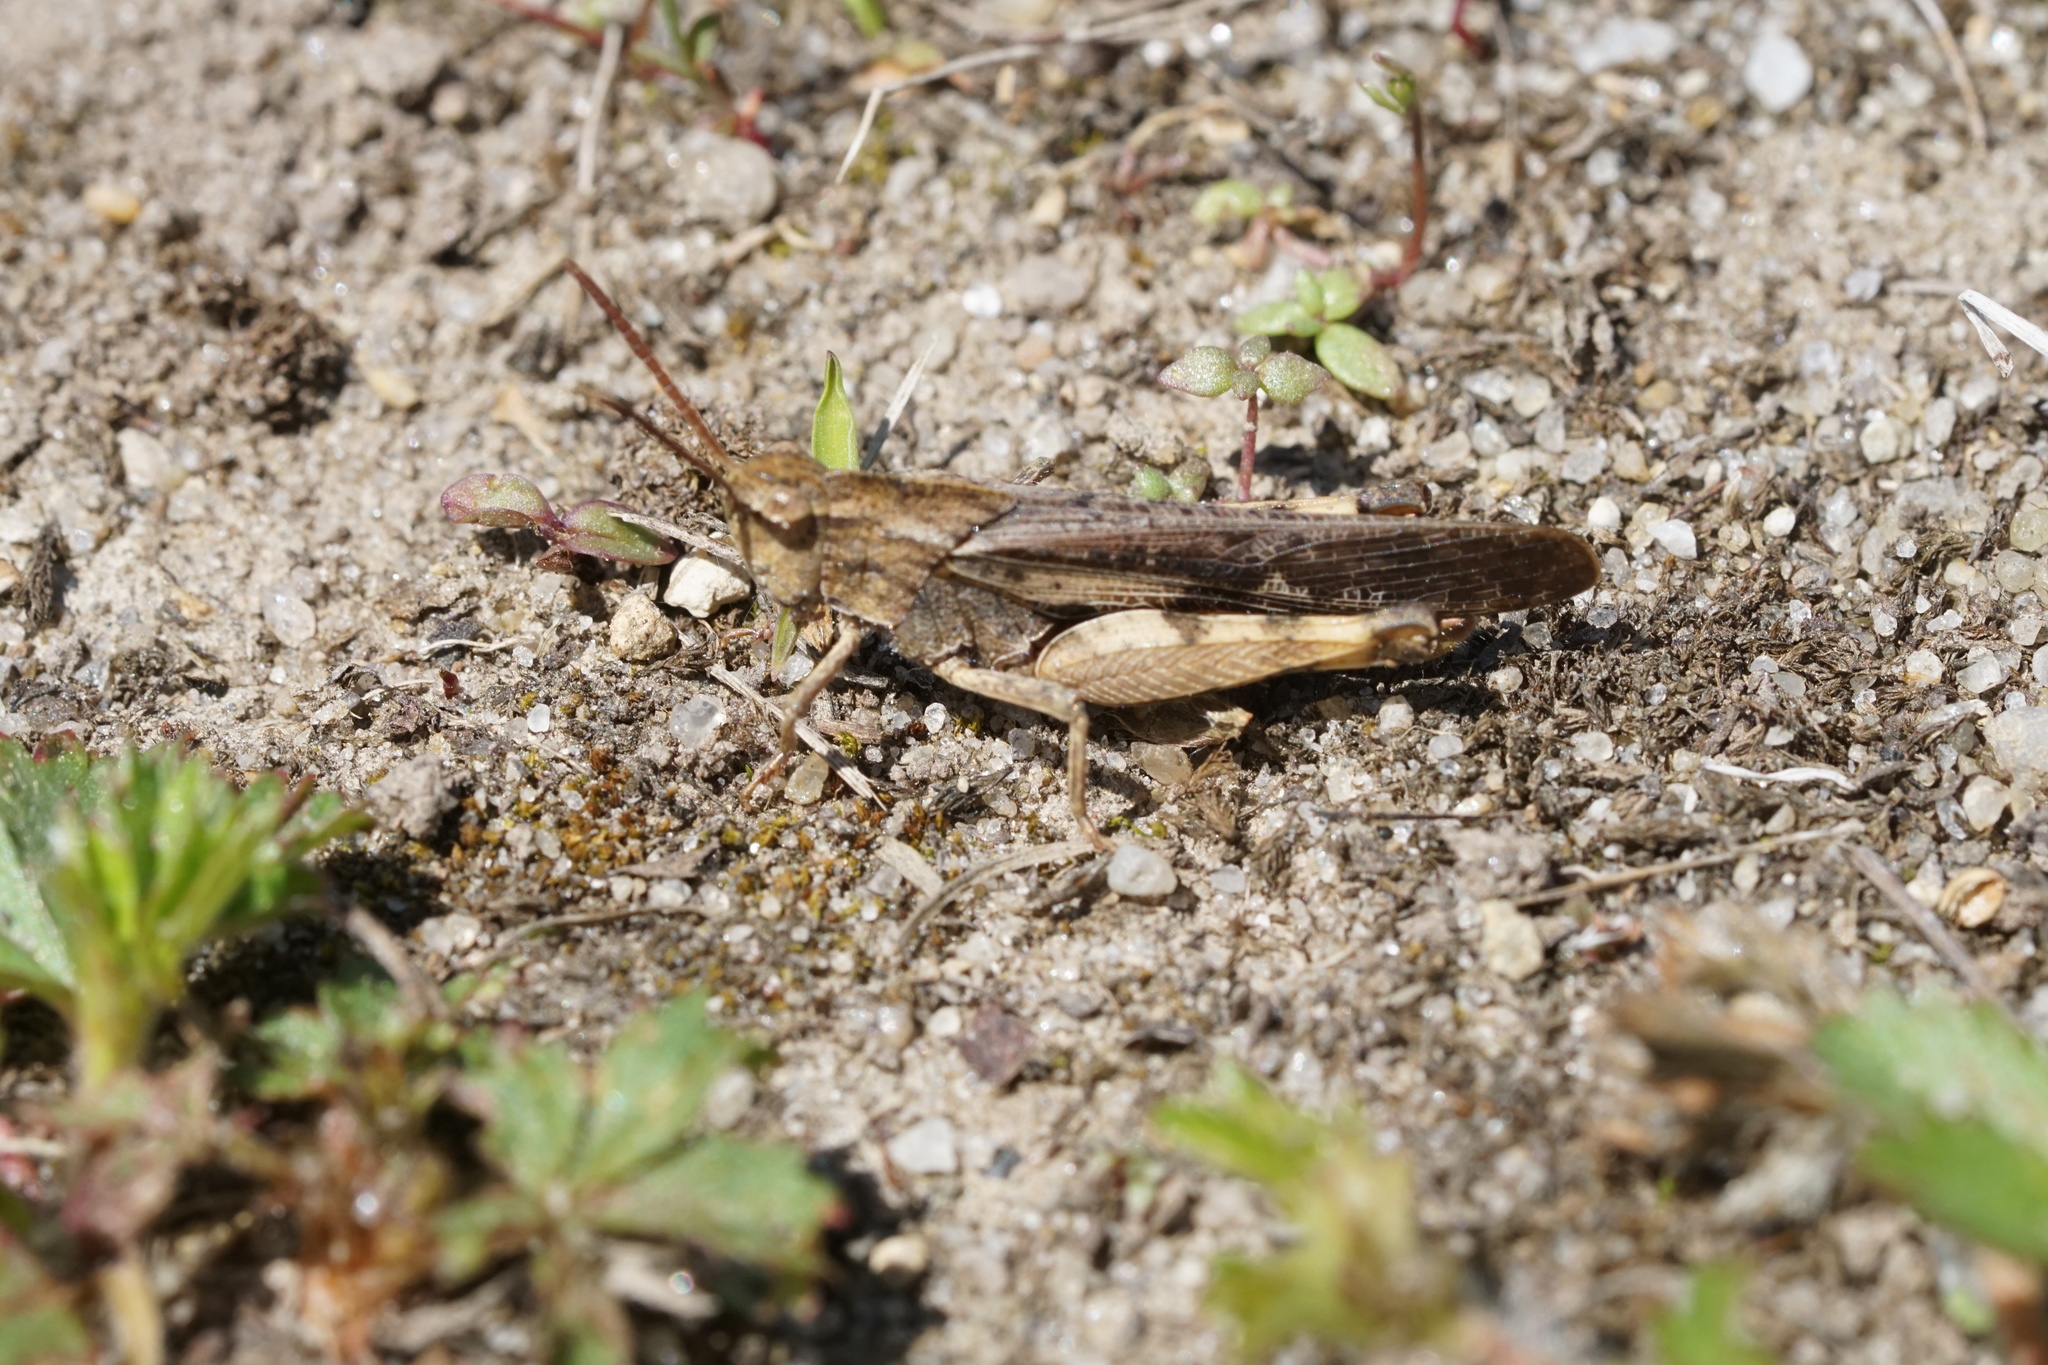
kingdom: Animalia
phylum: Arthropoda
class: Insecta
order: Orthoptera
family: Acrididae
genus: Chortophaga
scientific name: Chortophaga viridifasciata
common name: Green-striped grasshopper
